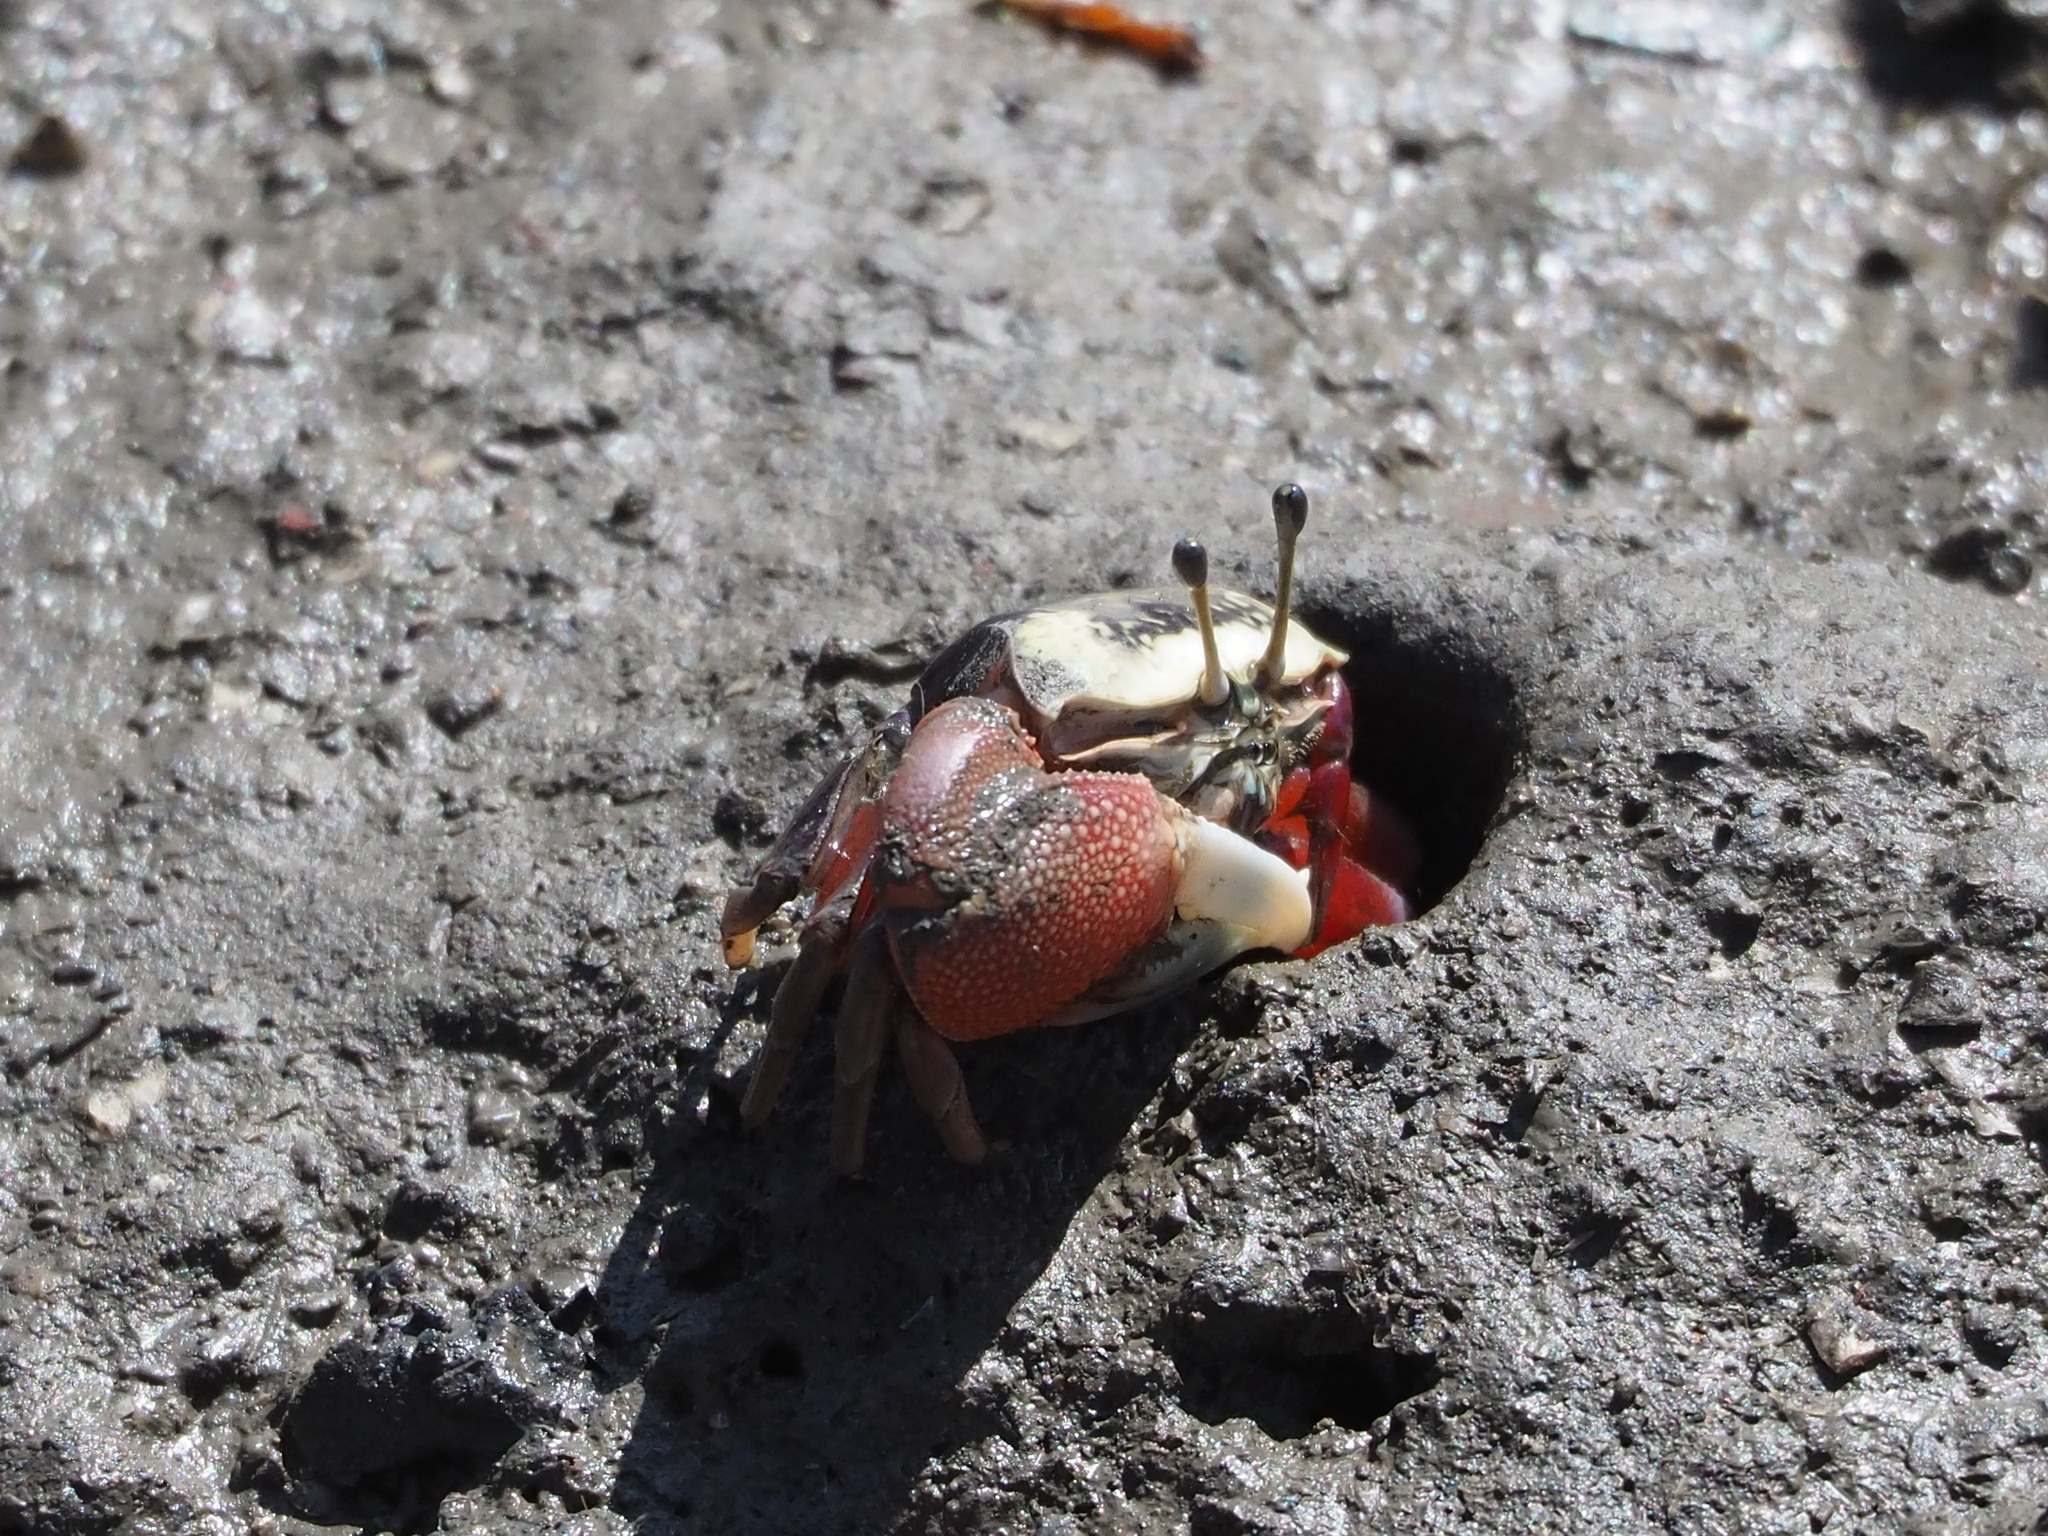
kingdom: Animalia
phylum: Arthropoda
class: Malacostraca
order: Decapoda
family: Ocypodidae
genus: Tubuca
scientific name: Tubuca arcuata
